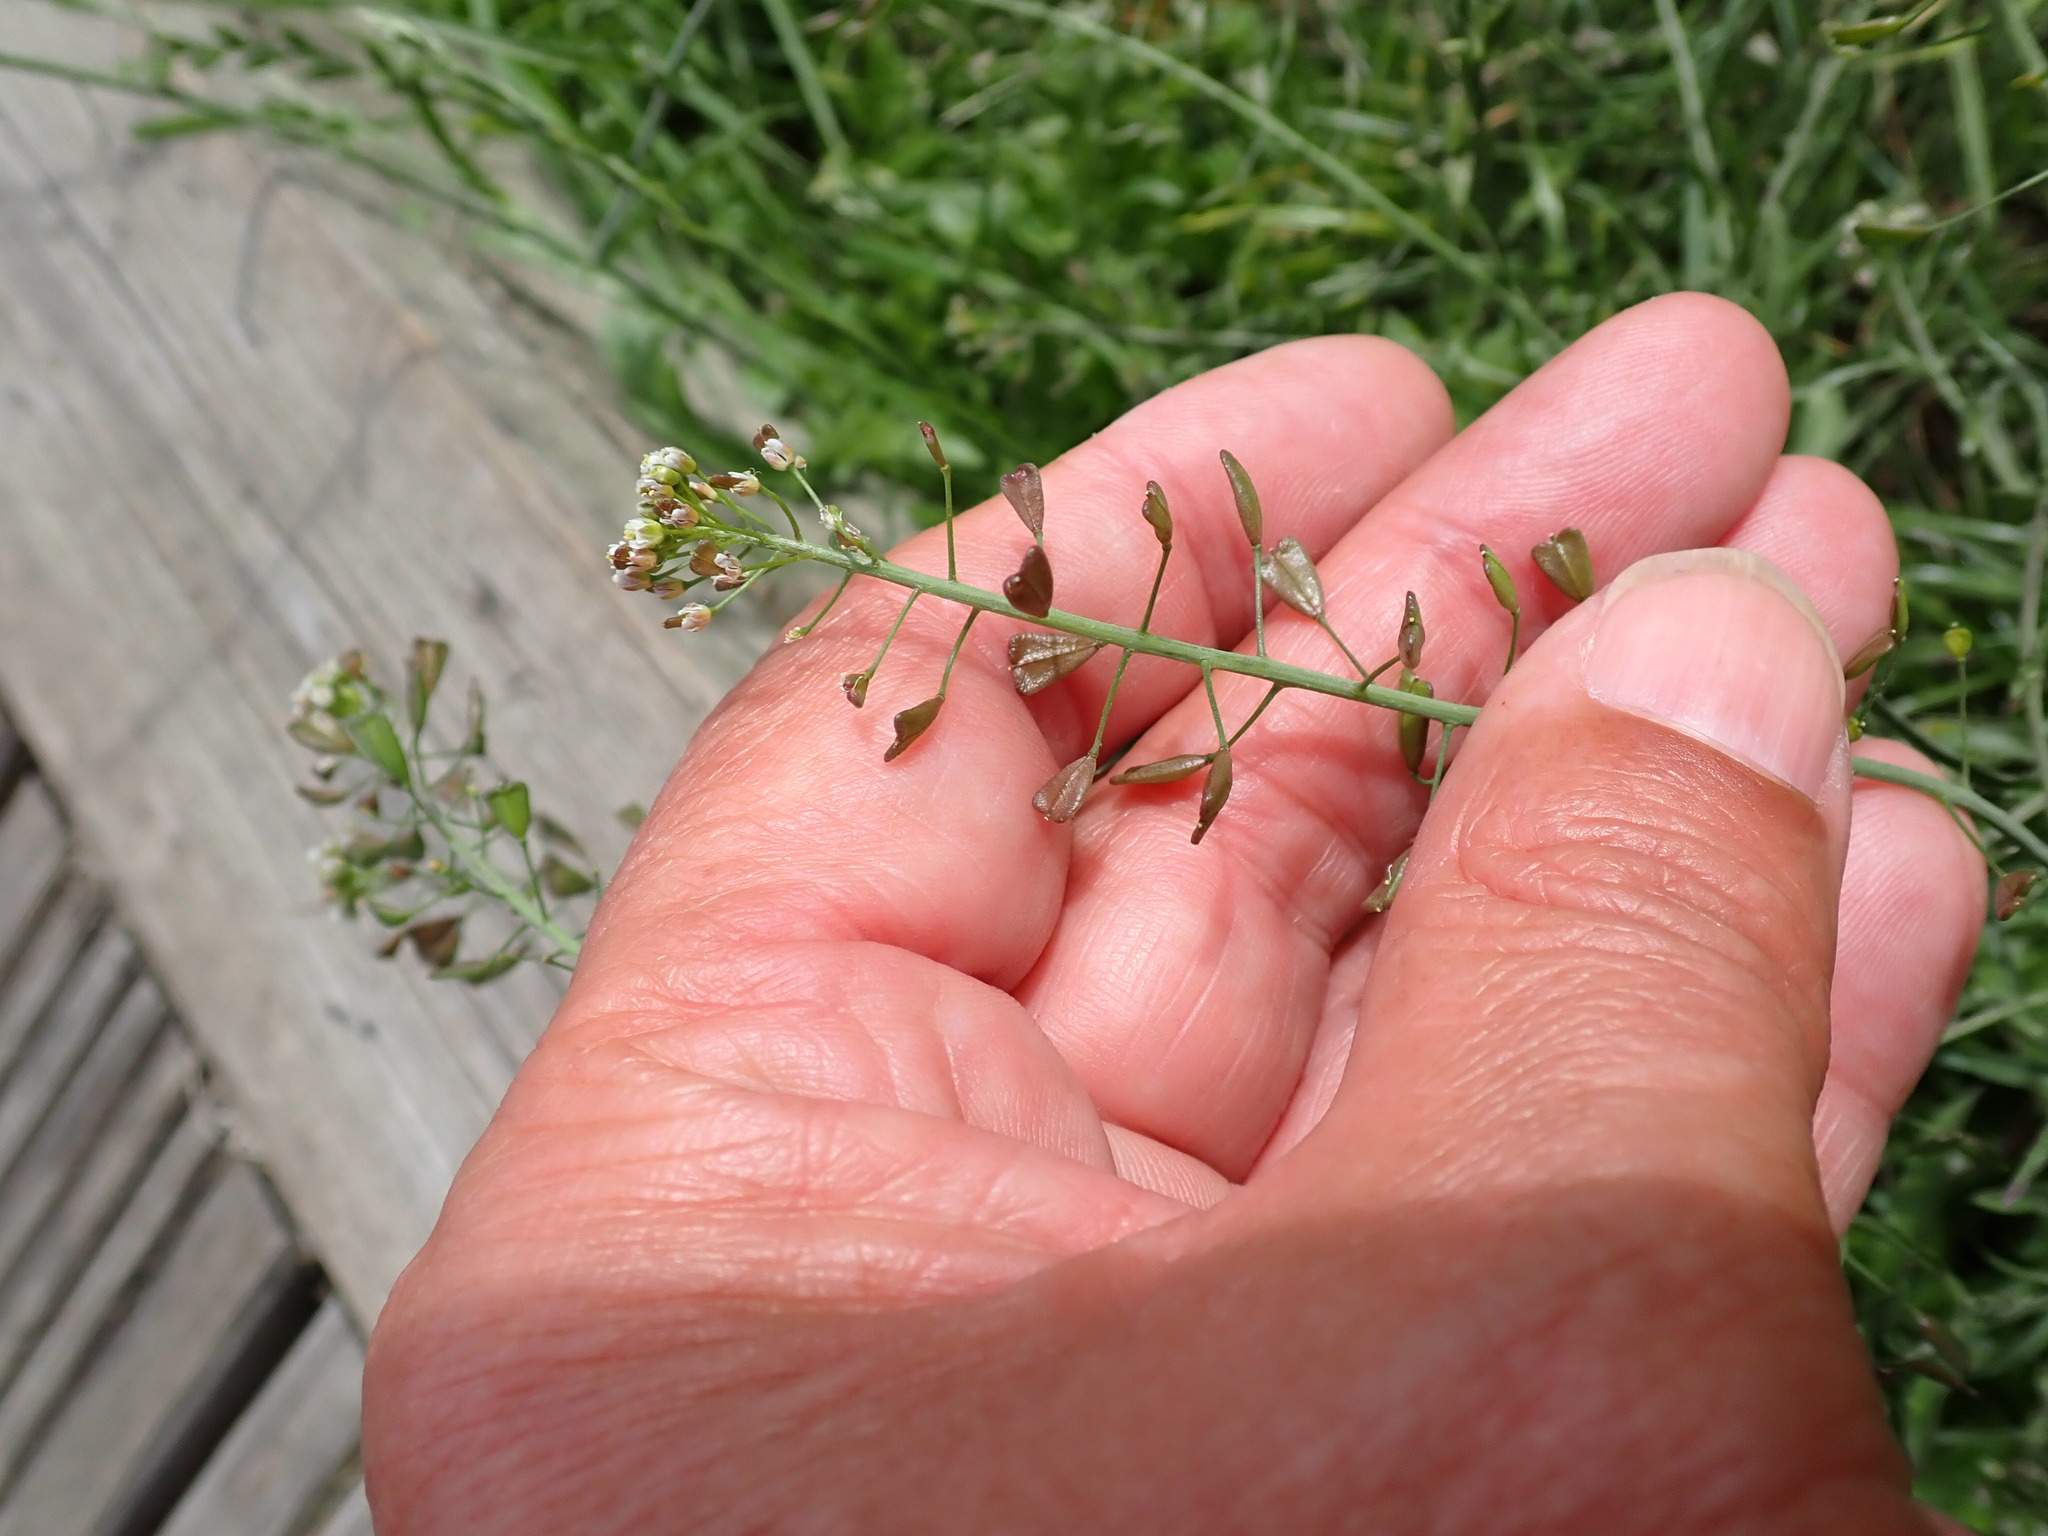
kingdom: Plantae
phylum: Tracheophyta
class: Magnoliopsida
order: Brassicales
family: Brassicaceae
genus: Capsella
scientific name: Capsella bursa-pastoris
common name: Shepherd's purse
